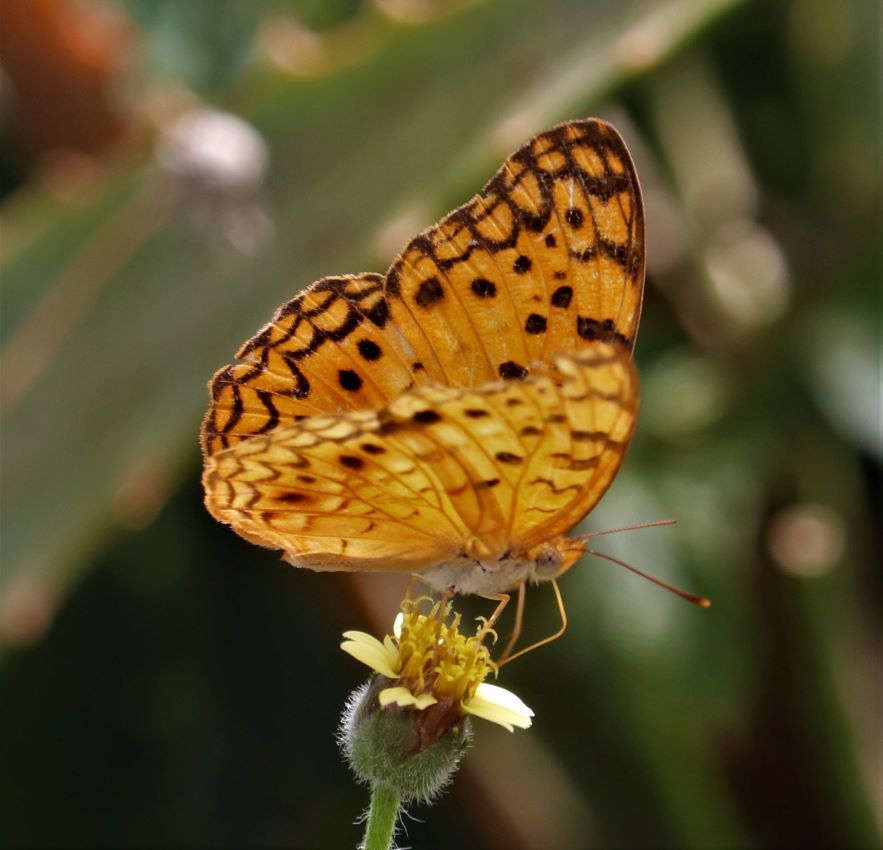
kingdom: Animalia
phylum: Arthropoda
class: Insecta
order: Lepidoptera
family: Nymphalidae
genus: Phalanta
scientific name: Phalanta phalantha
